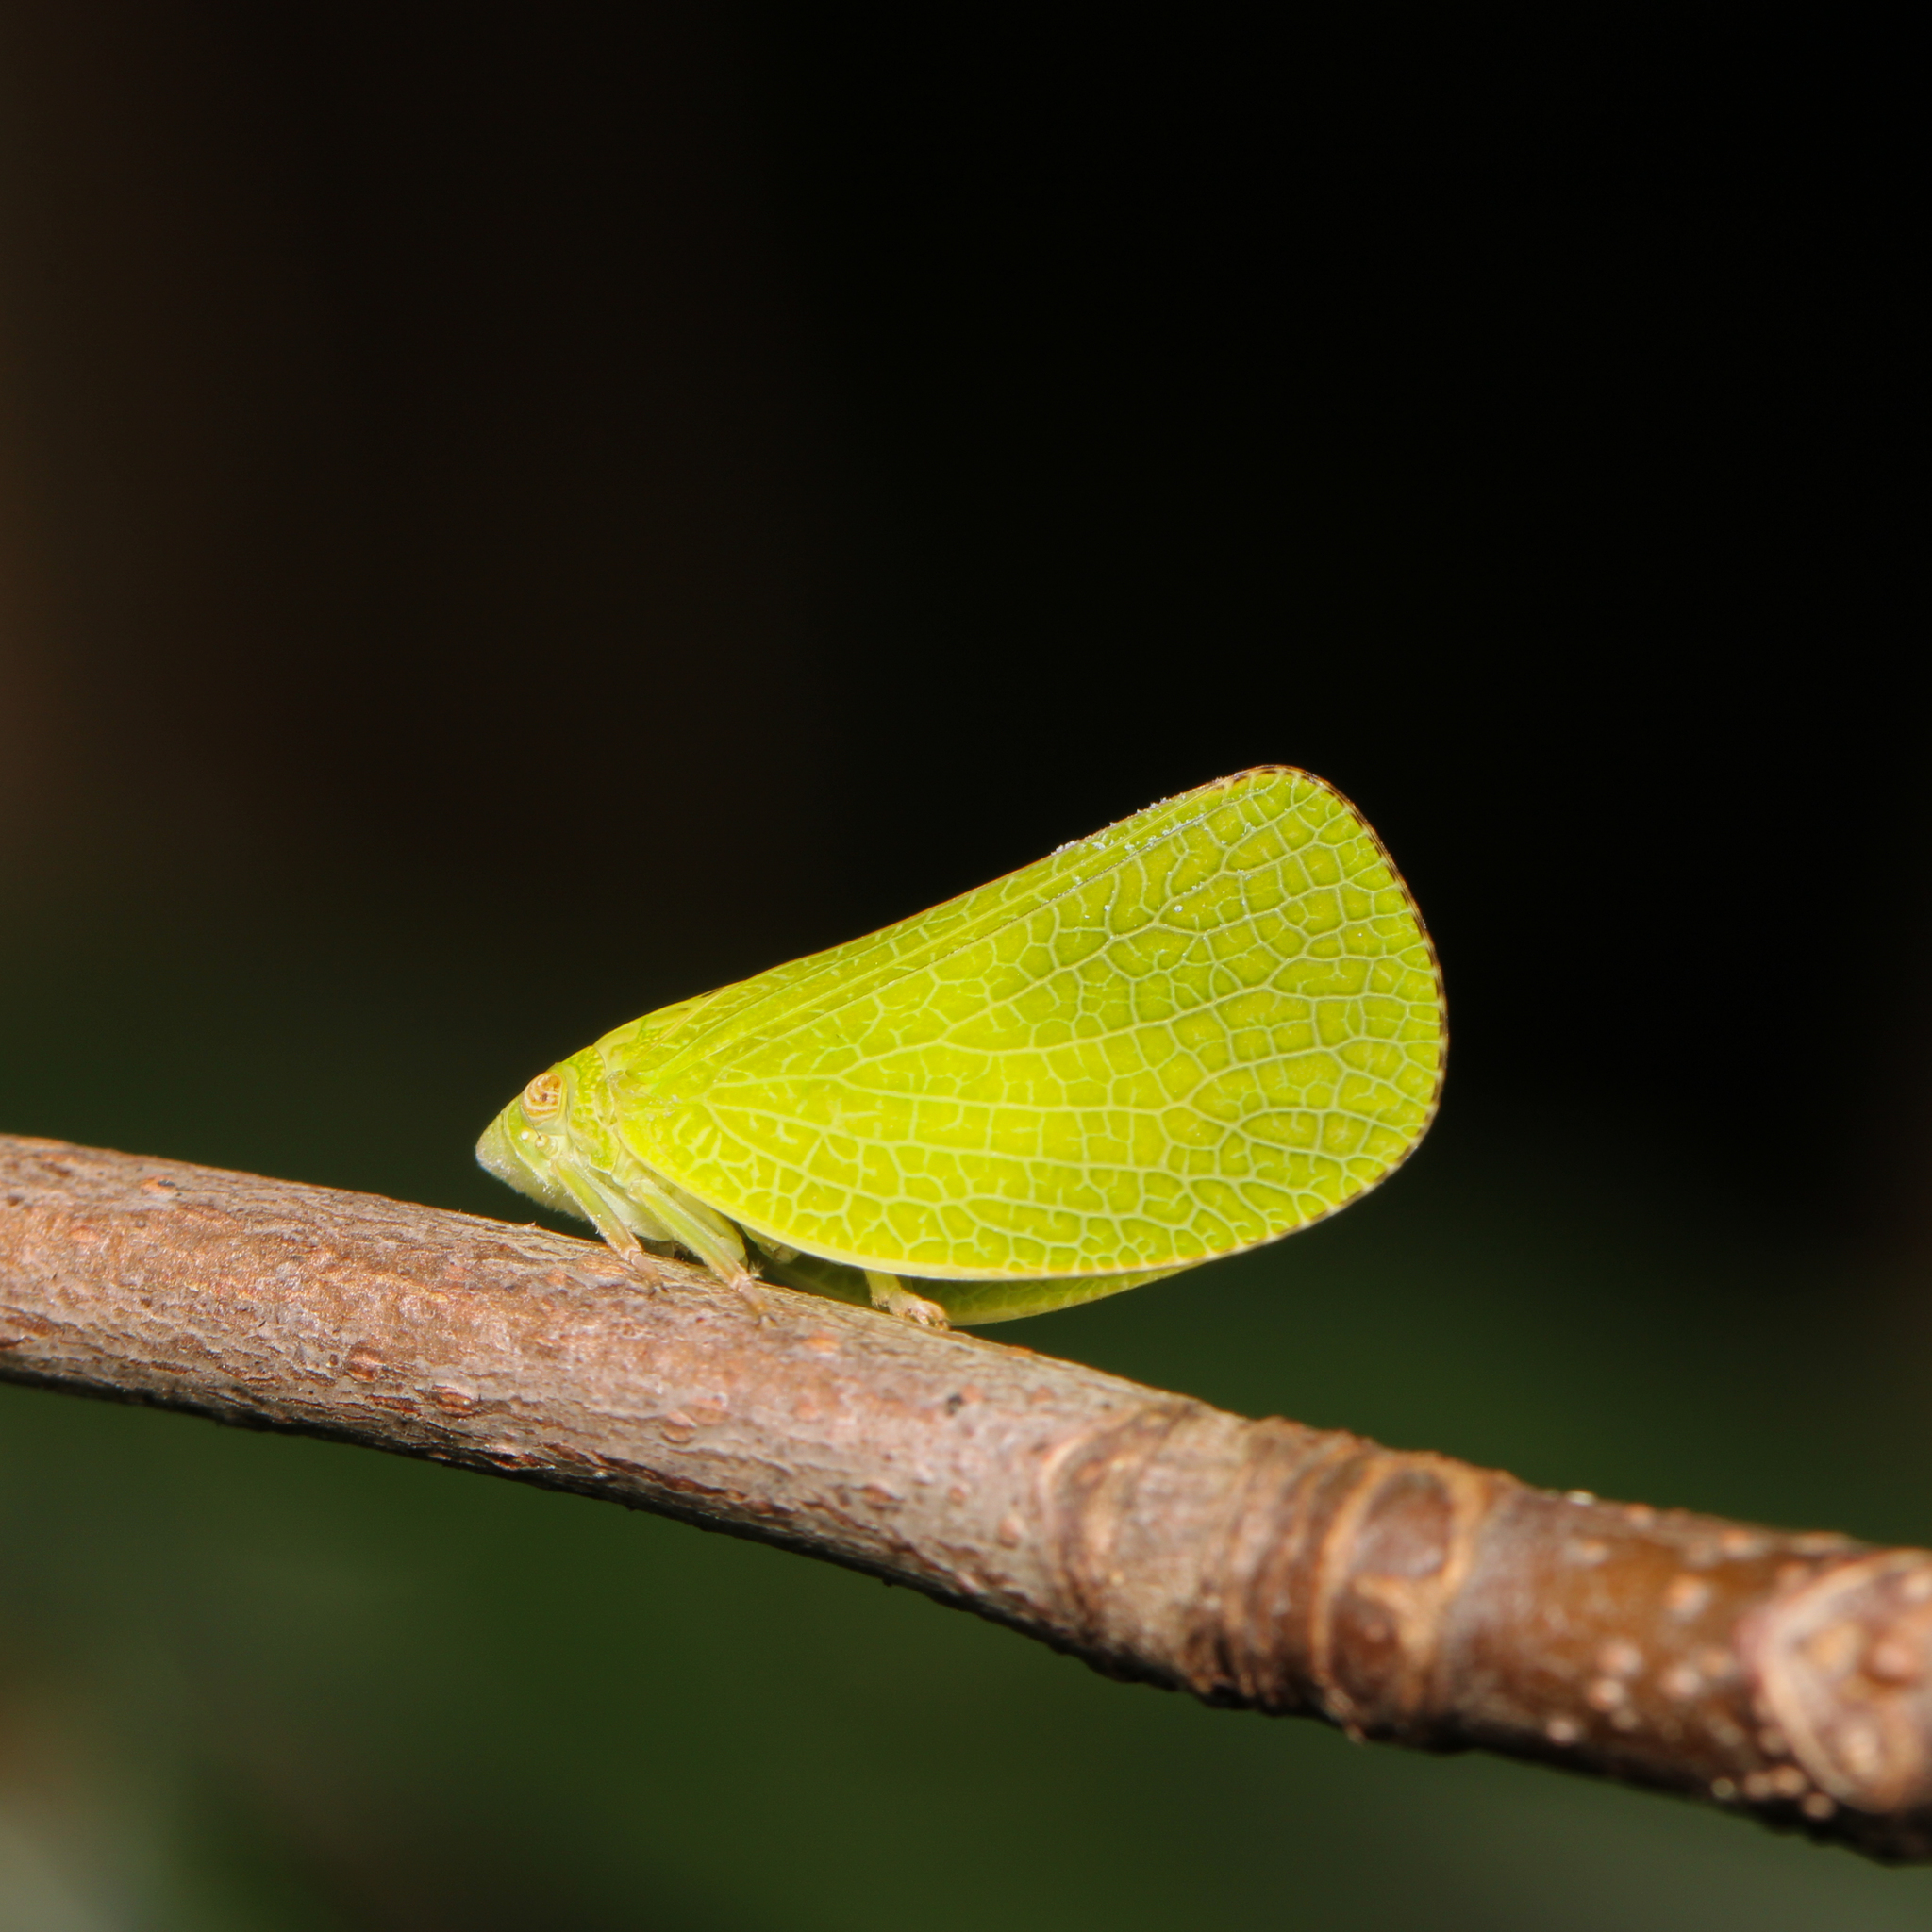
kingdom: Animalia
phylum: Arthropoda
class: Insecta
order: Hemiptera
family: Acanaloniidae
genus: Acanalonia
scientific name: Acanalonia conica
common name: Green cone-headed planthopper
